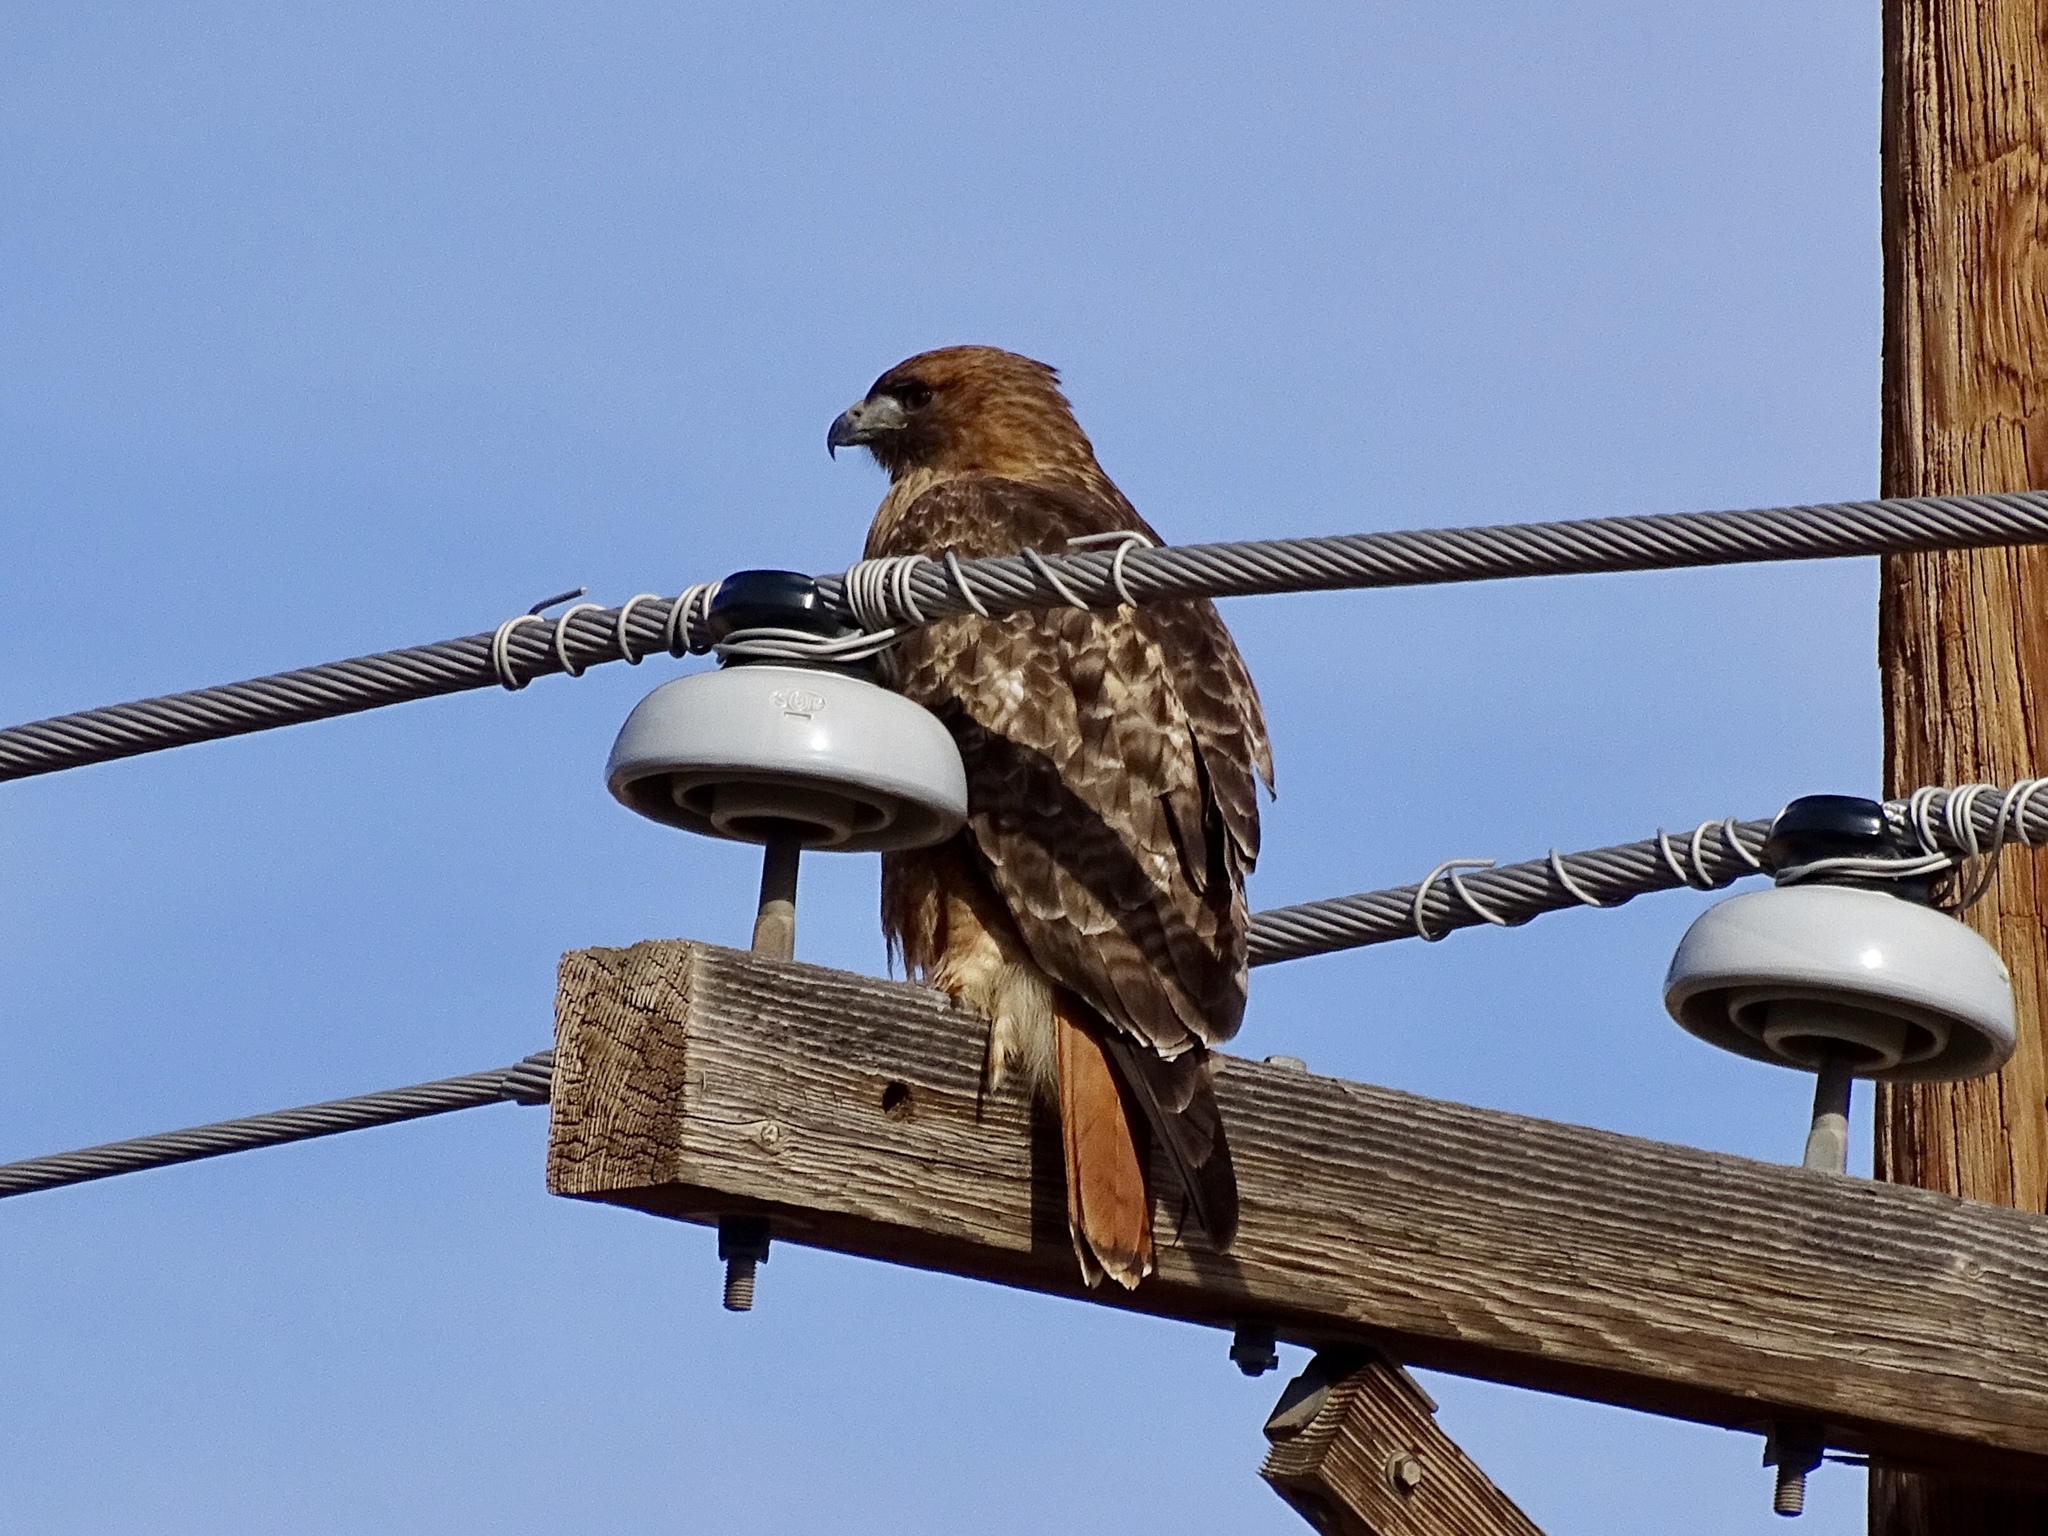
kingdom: Animalia
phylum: Chordata
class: Aves
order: Accipitriformes
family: Accipitridae
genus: Buteo
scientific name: Buteo jamaicensis
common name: Red-tailed hawk
